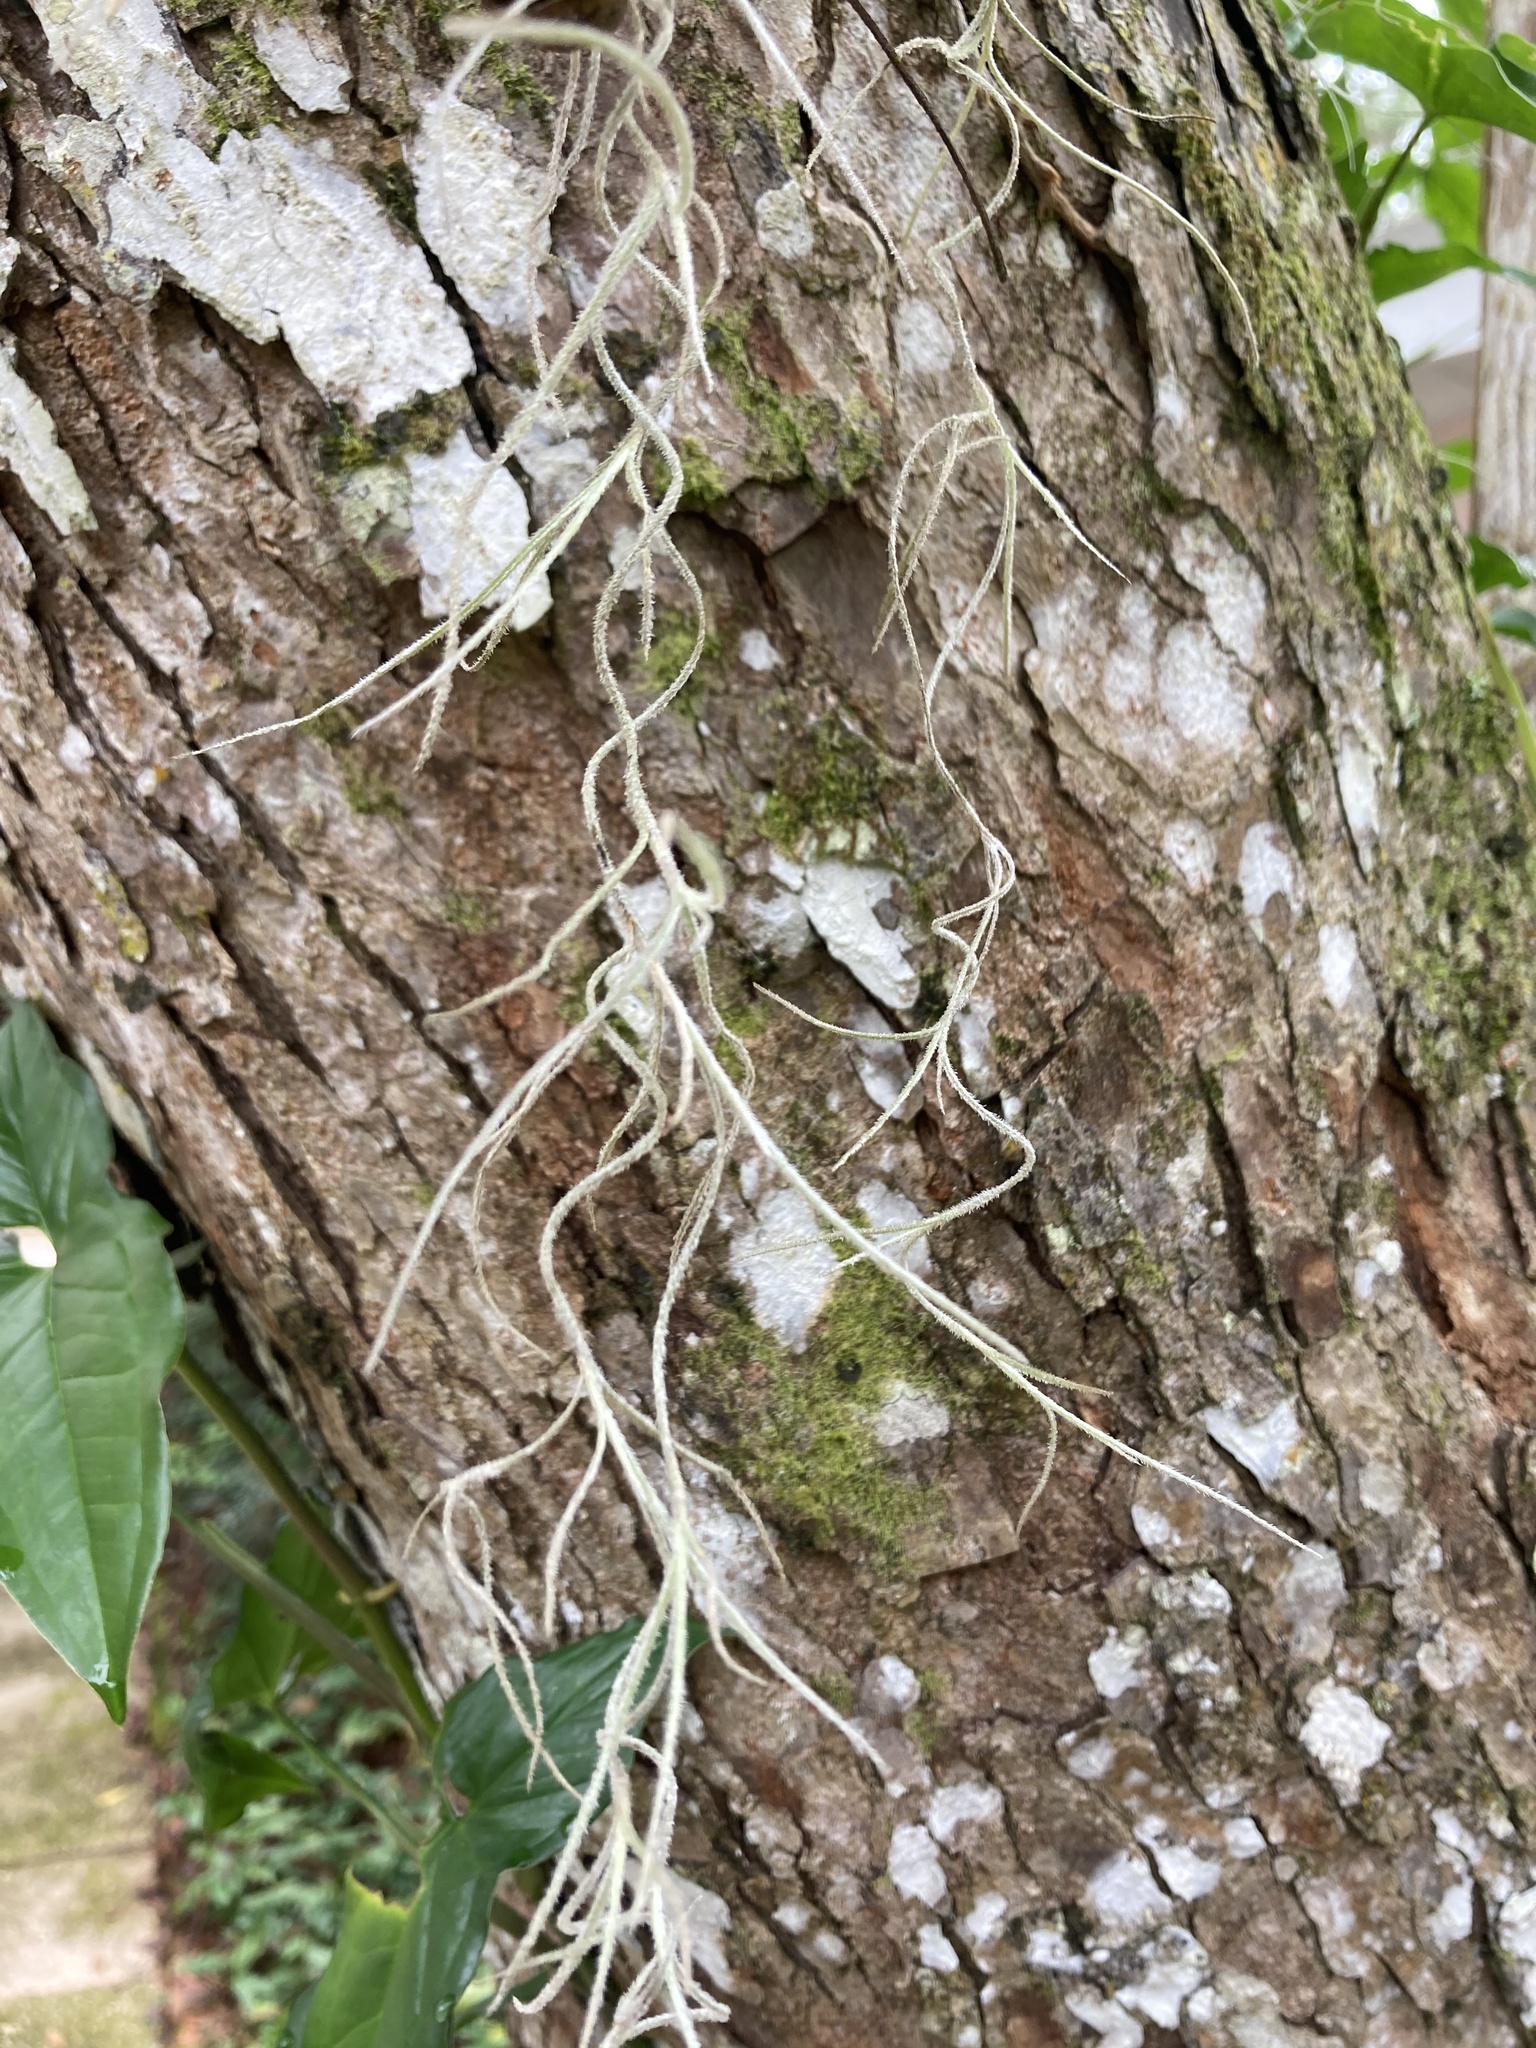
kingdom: Plantae
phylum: Tracheophyta
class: Liliopsida
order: Poales
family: Bromeliaceae
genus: Tillandsia
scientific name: Tillandsia usneoides
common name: Spanish moss
